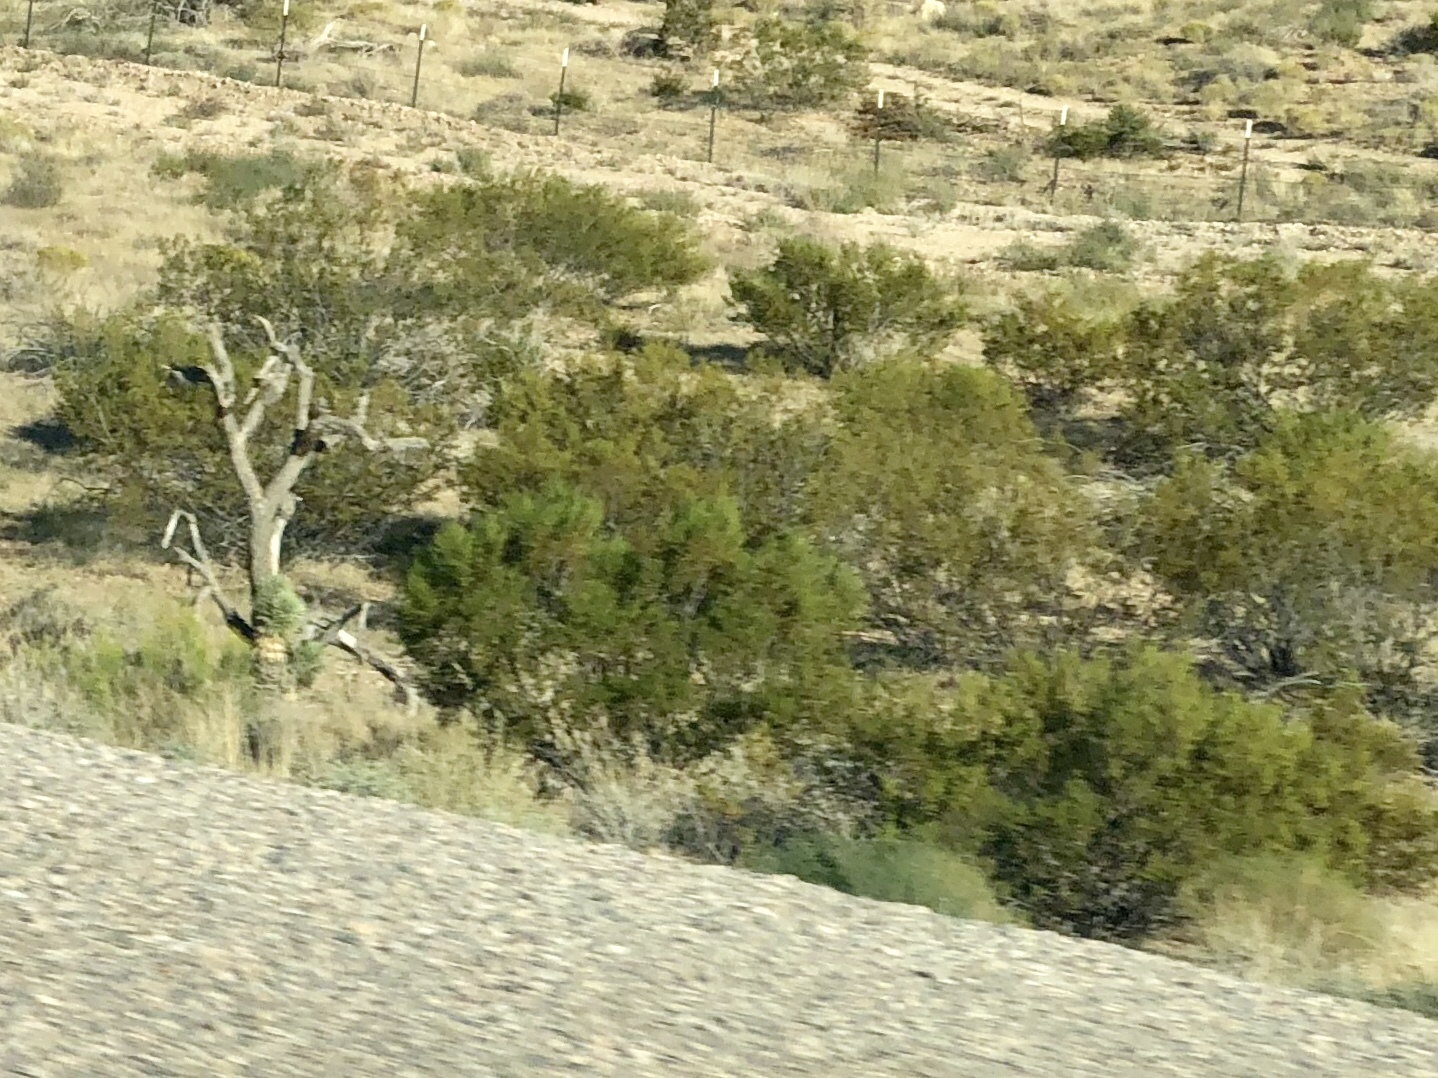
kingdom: Plantae
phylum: Tracheophyta
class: Magnoliopsida
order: Zygophyllales
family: Zygophyllaceae
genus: Larrea
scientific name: Larrea tridentata
